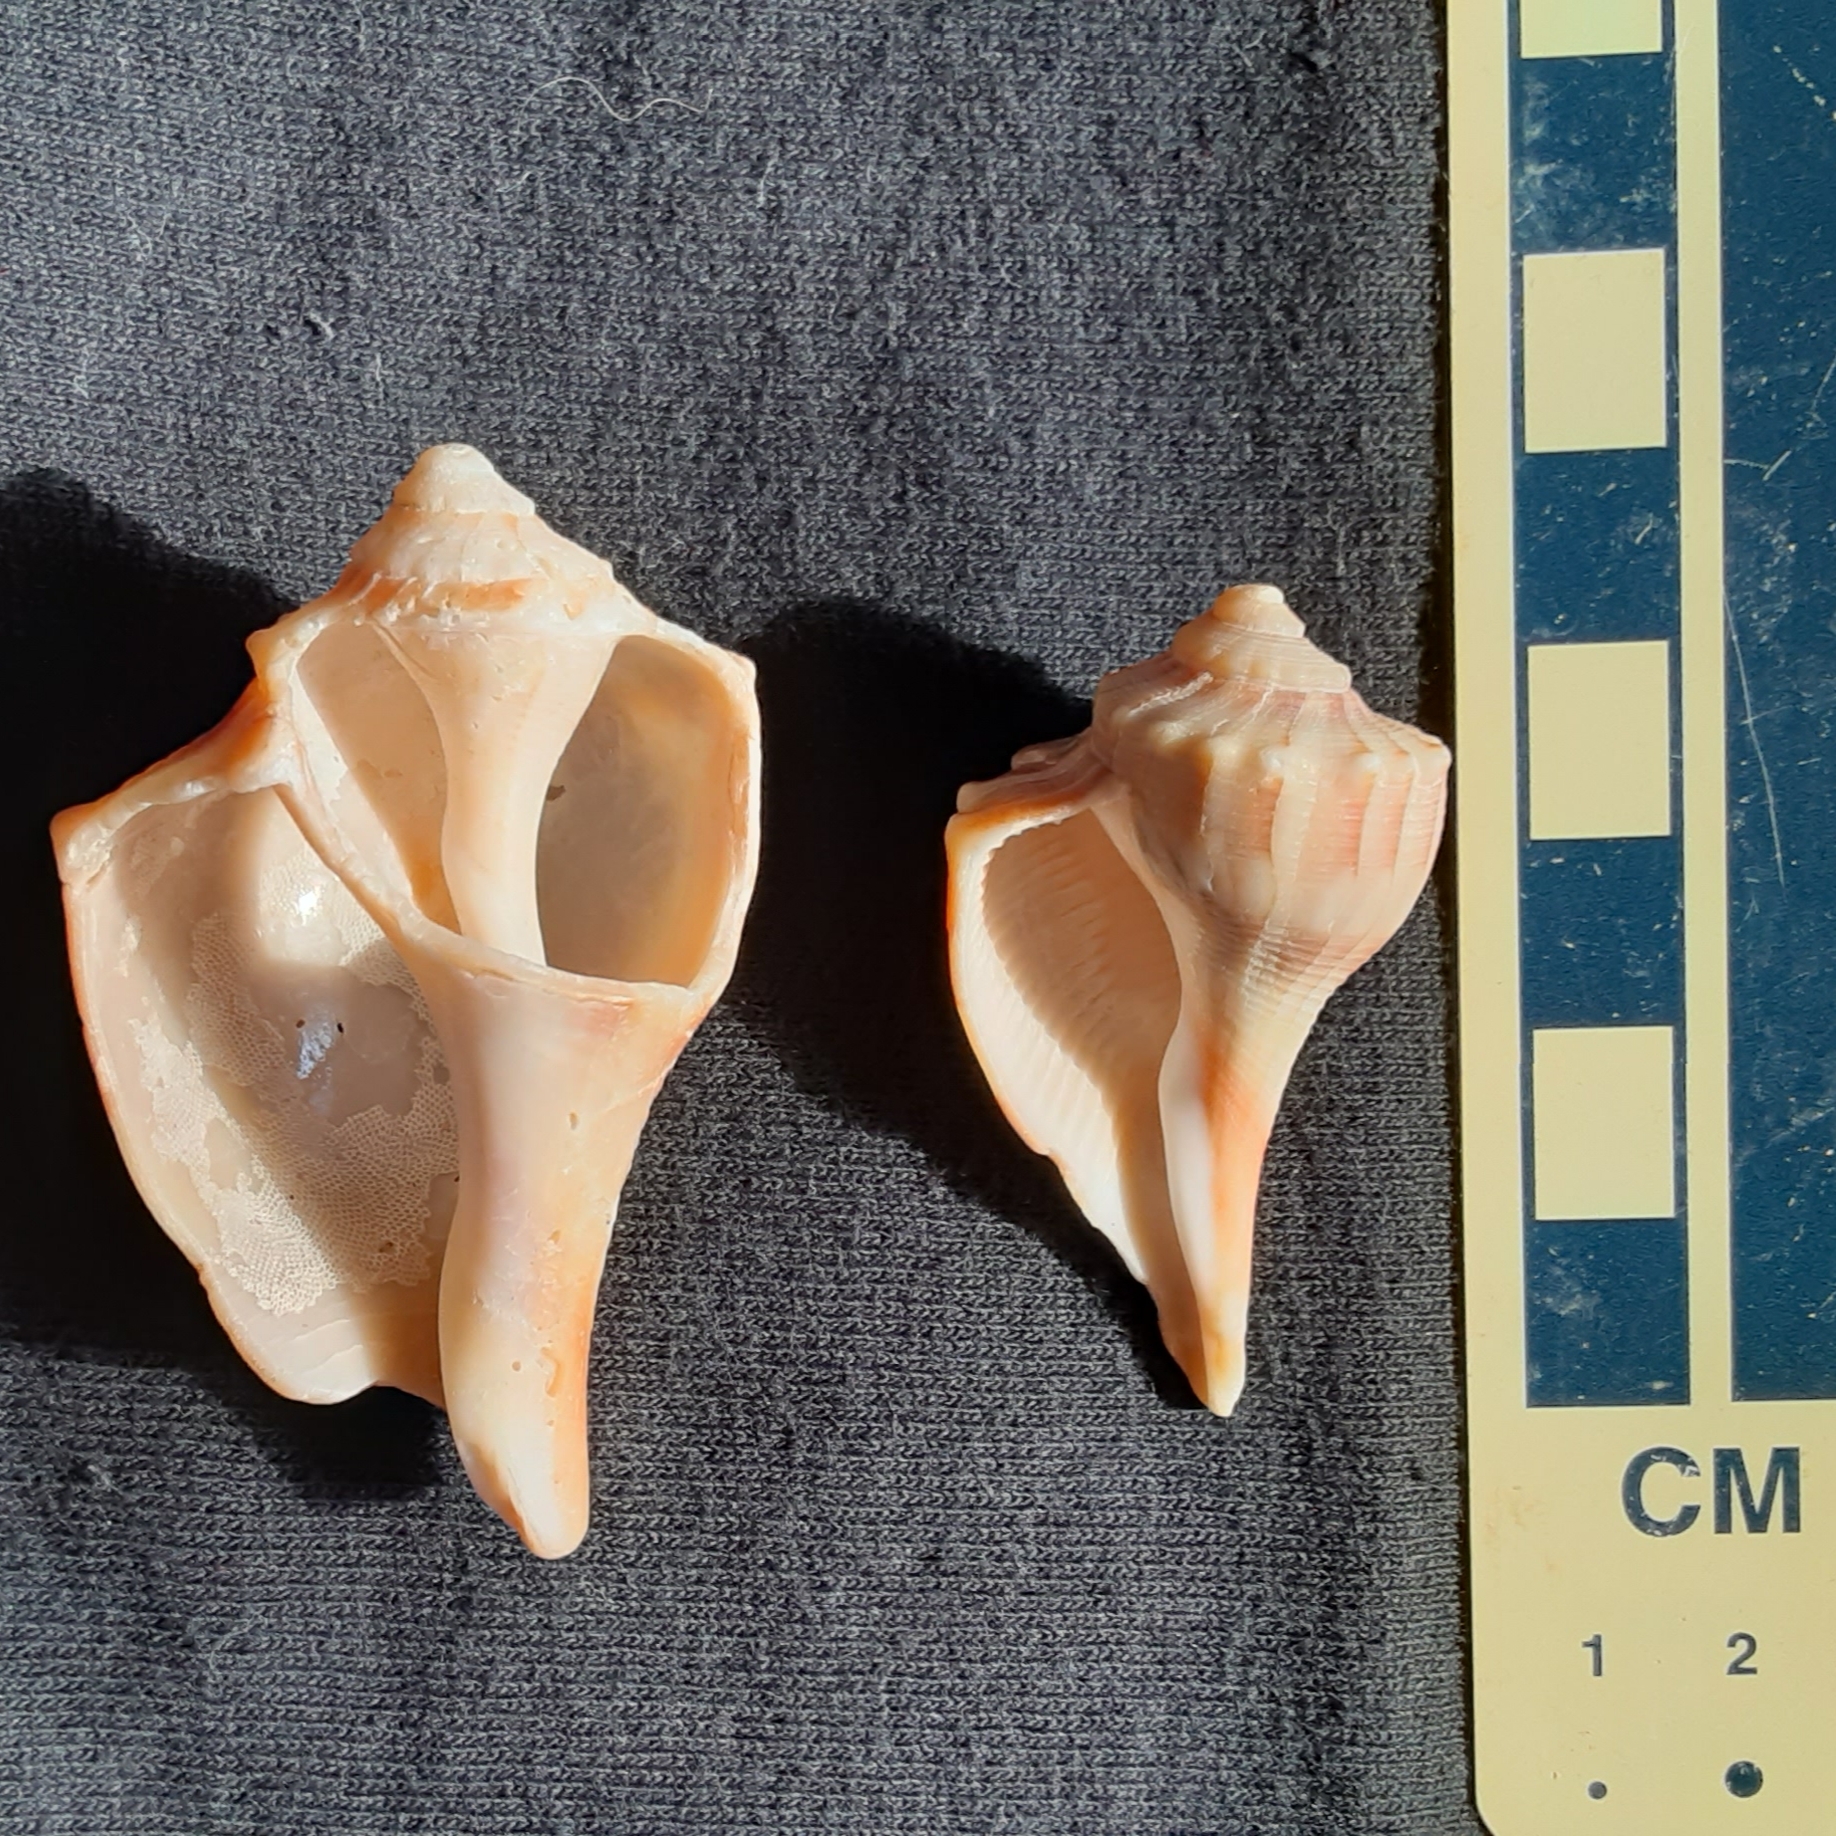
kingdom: Animalia
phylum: Mollusca
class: Gastropoda
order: Neogastropoda
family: Busyconidae
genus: Sinistrofulgur
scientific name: Sinistrofulgur sinistrum
